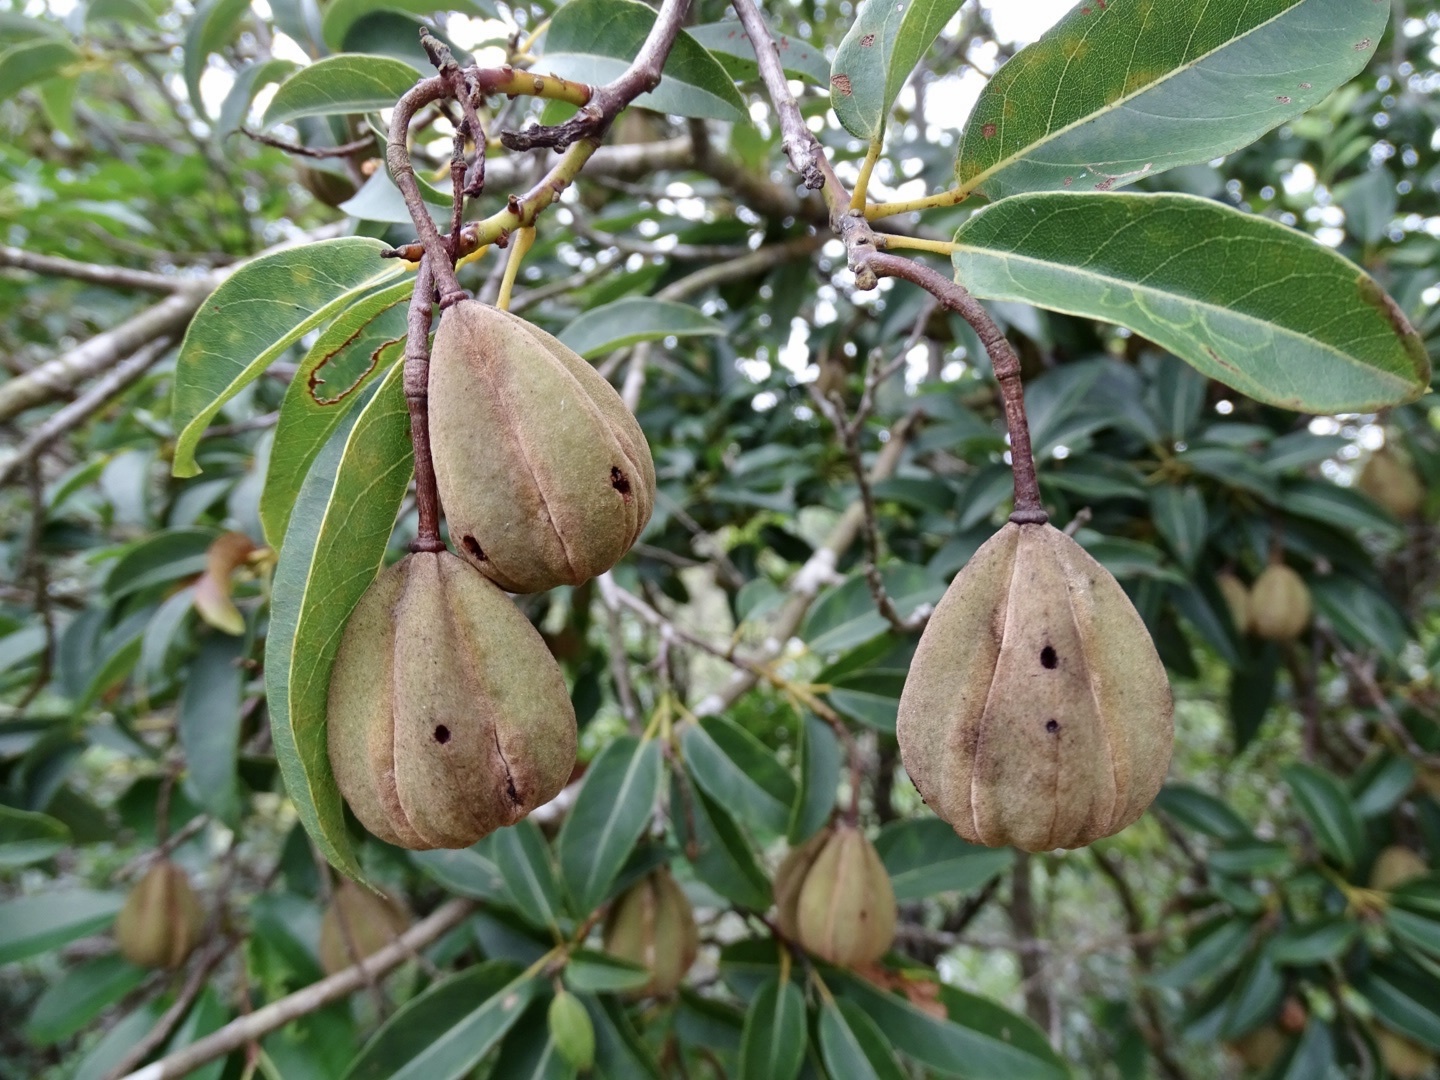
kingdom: Plantae
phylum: Tracheophyta
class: Magnoliopsida
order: Malvales
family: Malvaceae
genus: Reevesia
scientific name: Reevesia thyrsoidea
